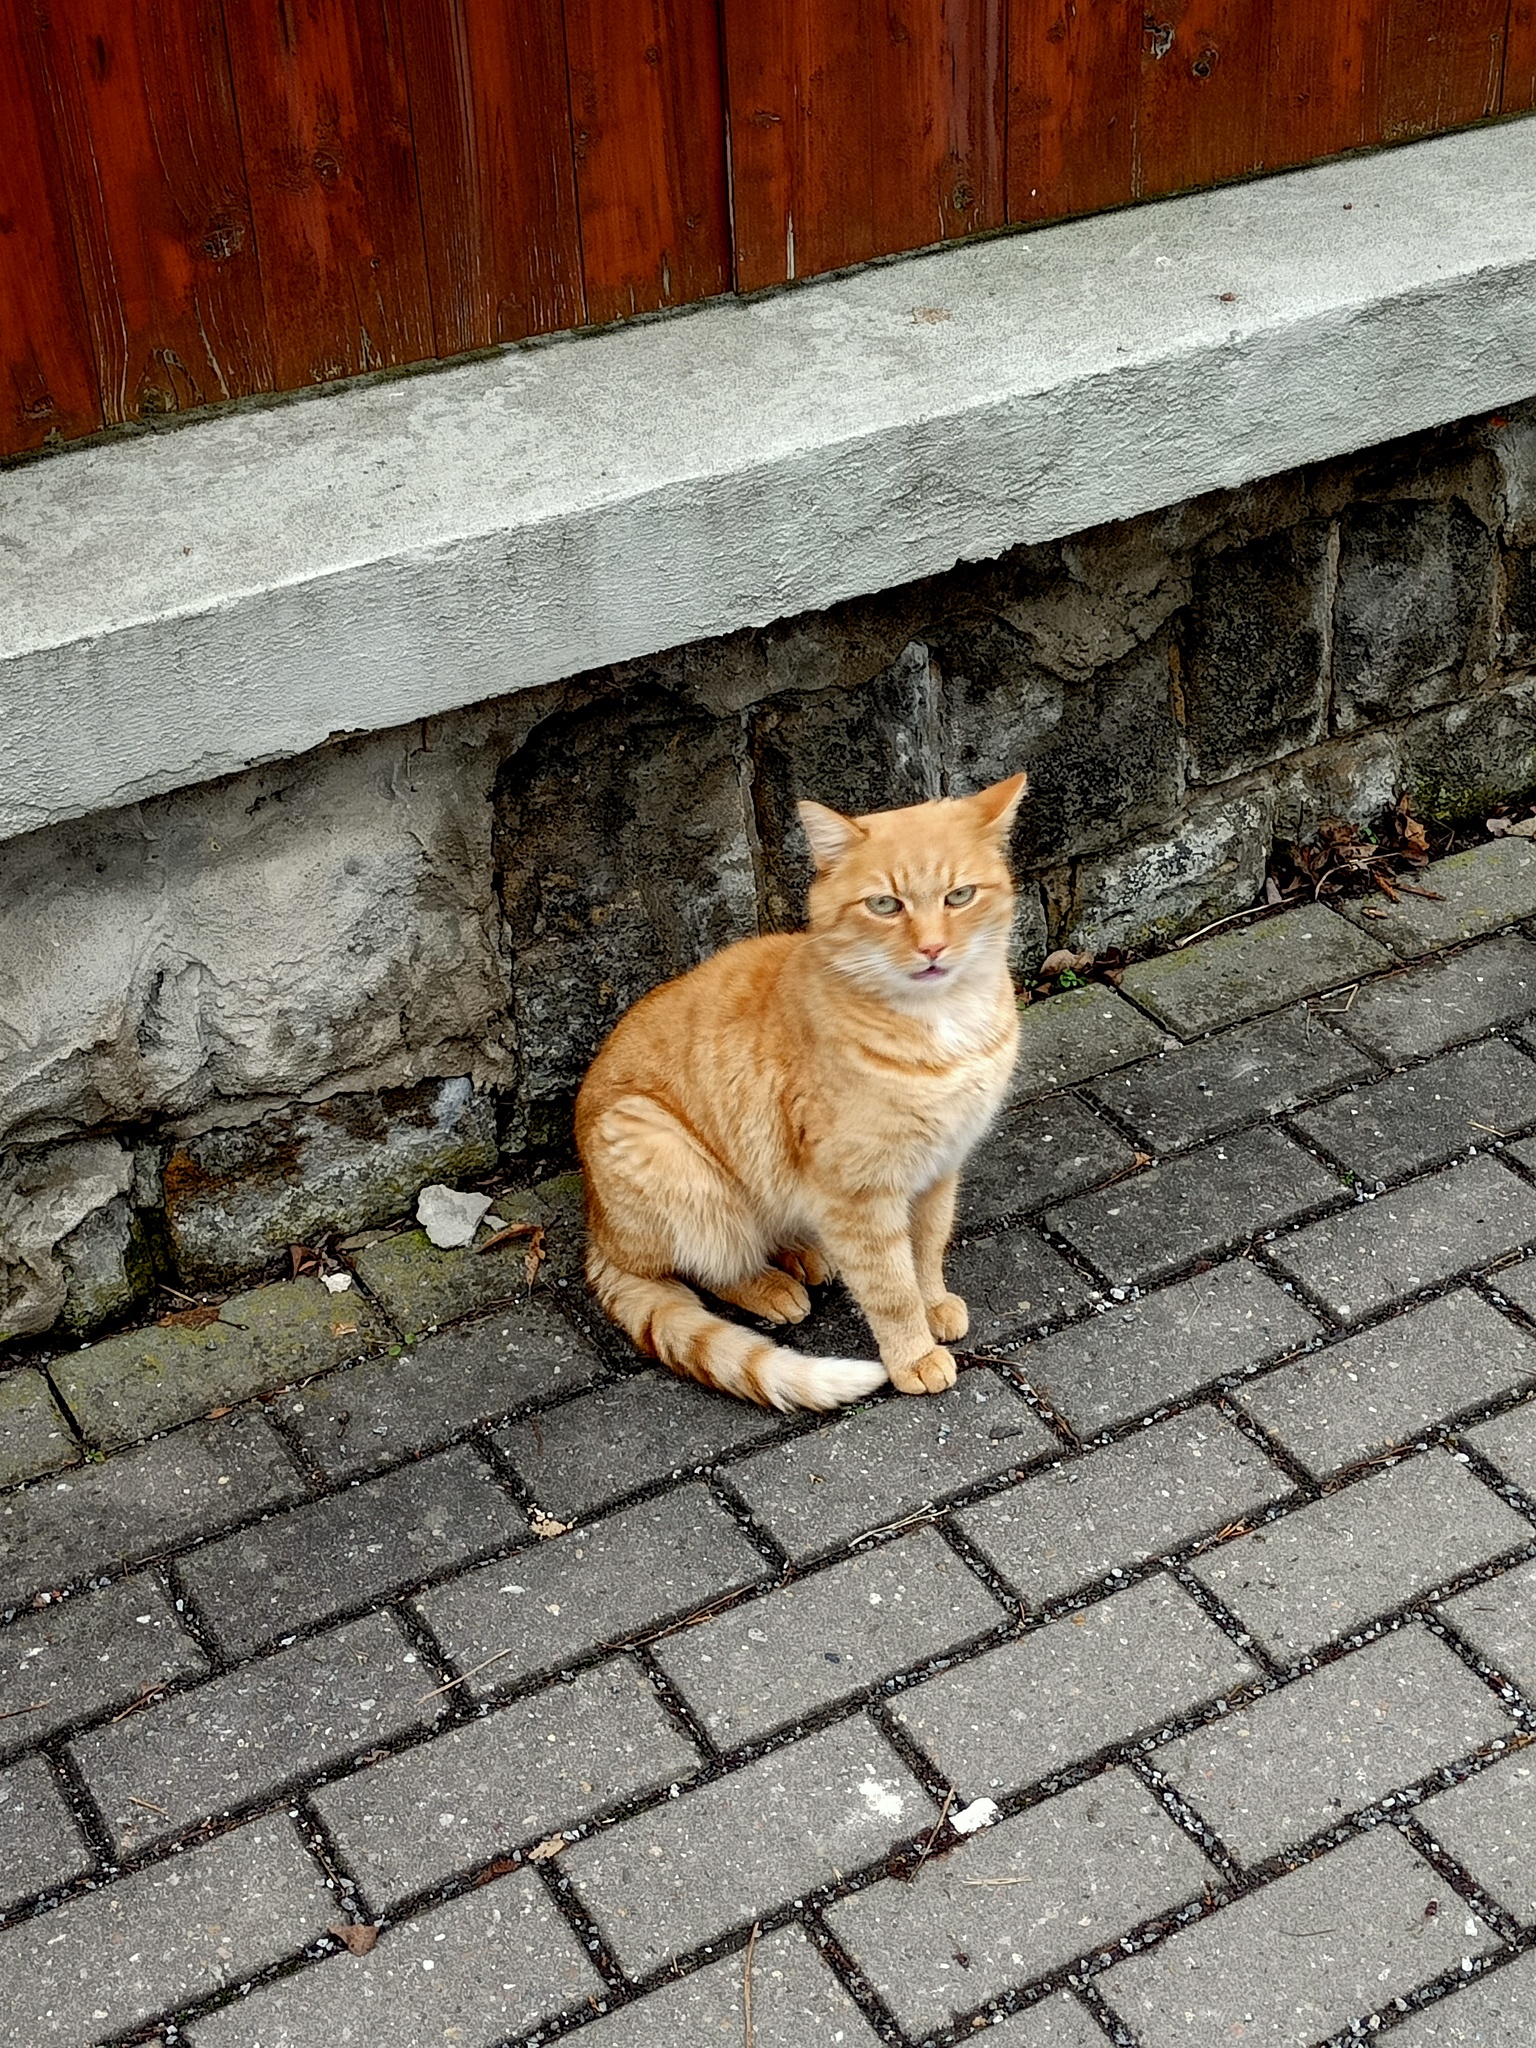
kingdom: Animalia
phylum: Chordata
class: Mammalia
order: Carnivora
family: Felidae
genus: Felis
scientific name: Felis catus
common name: Domestic cat
